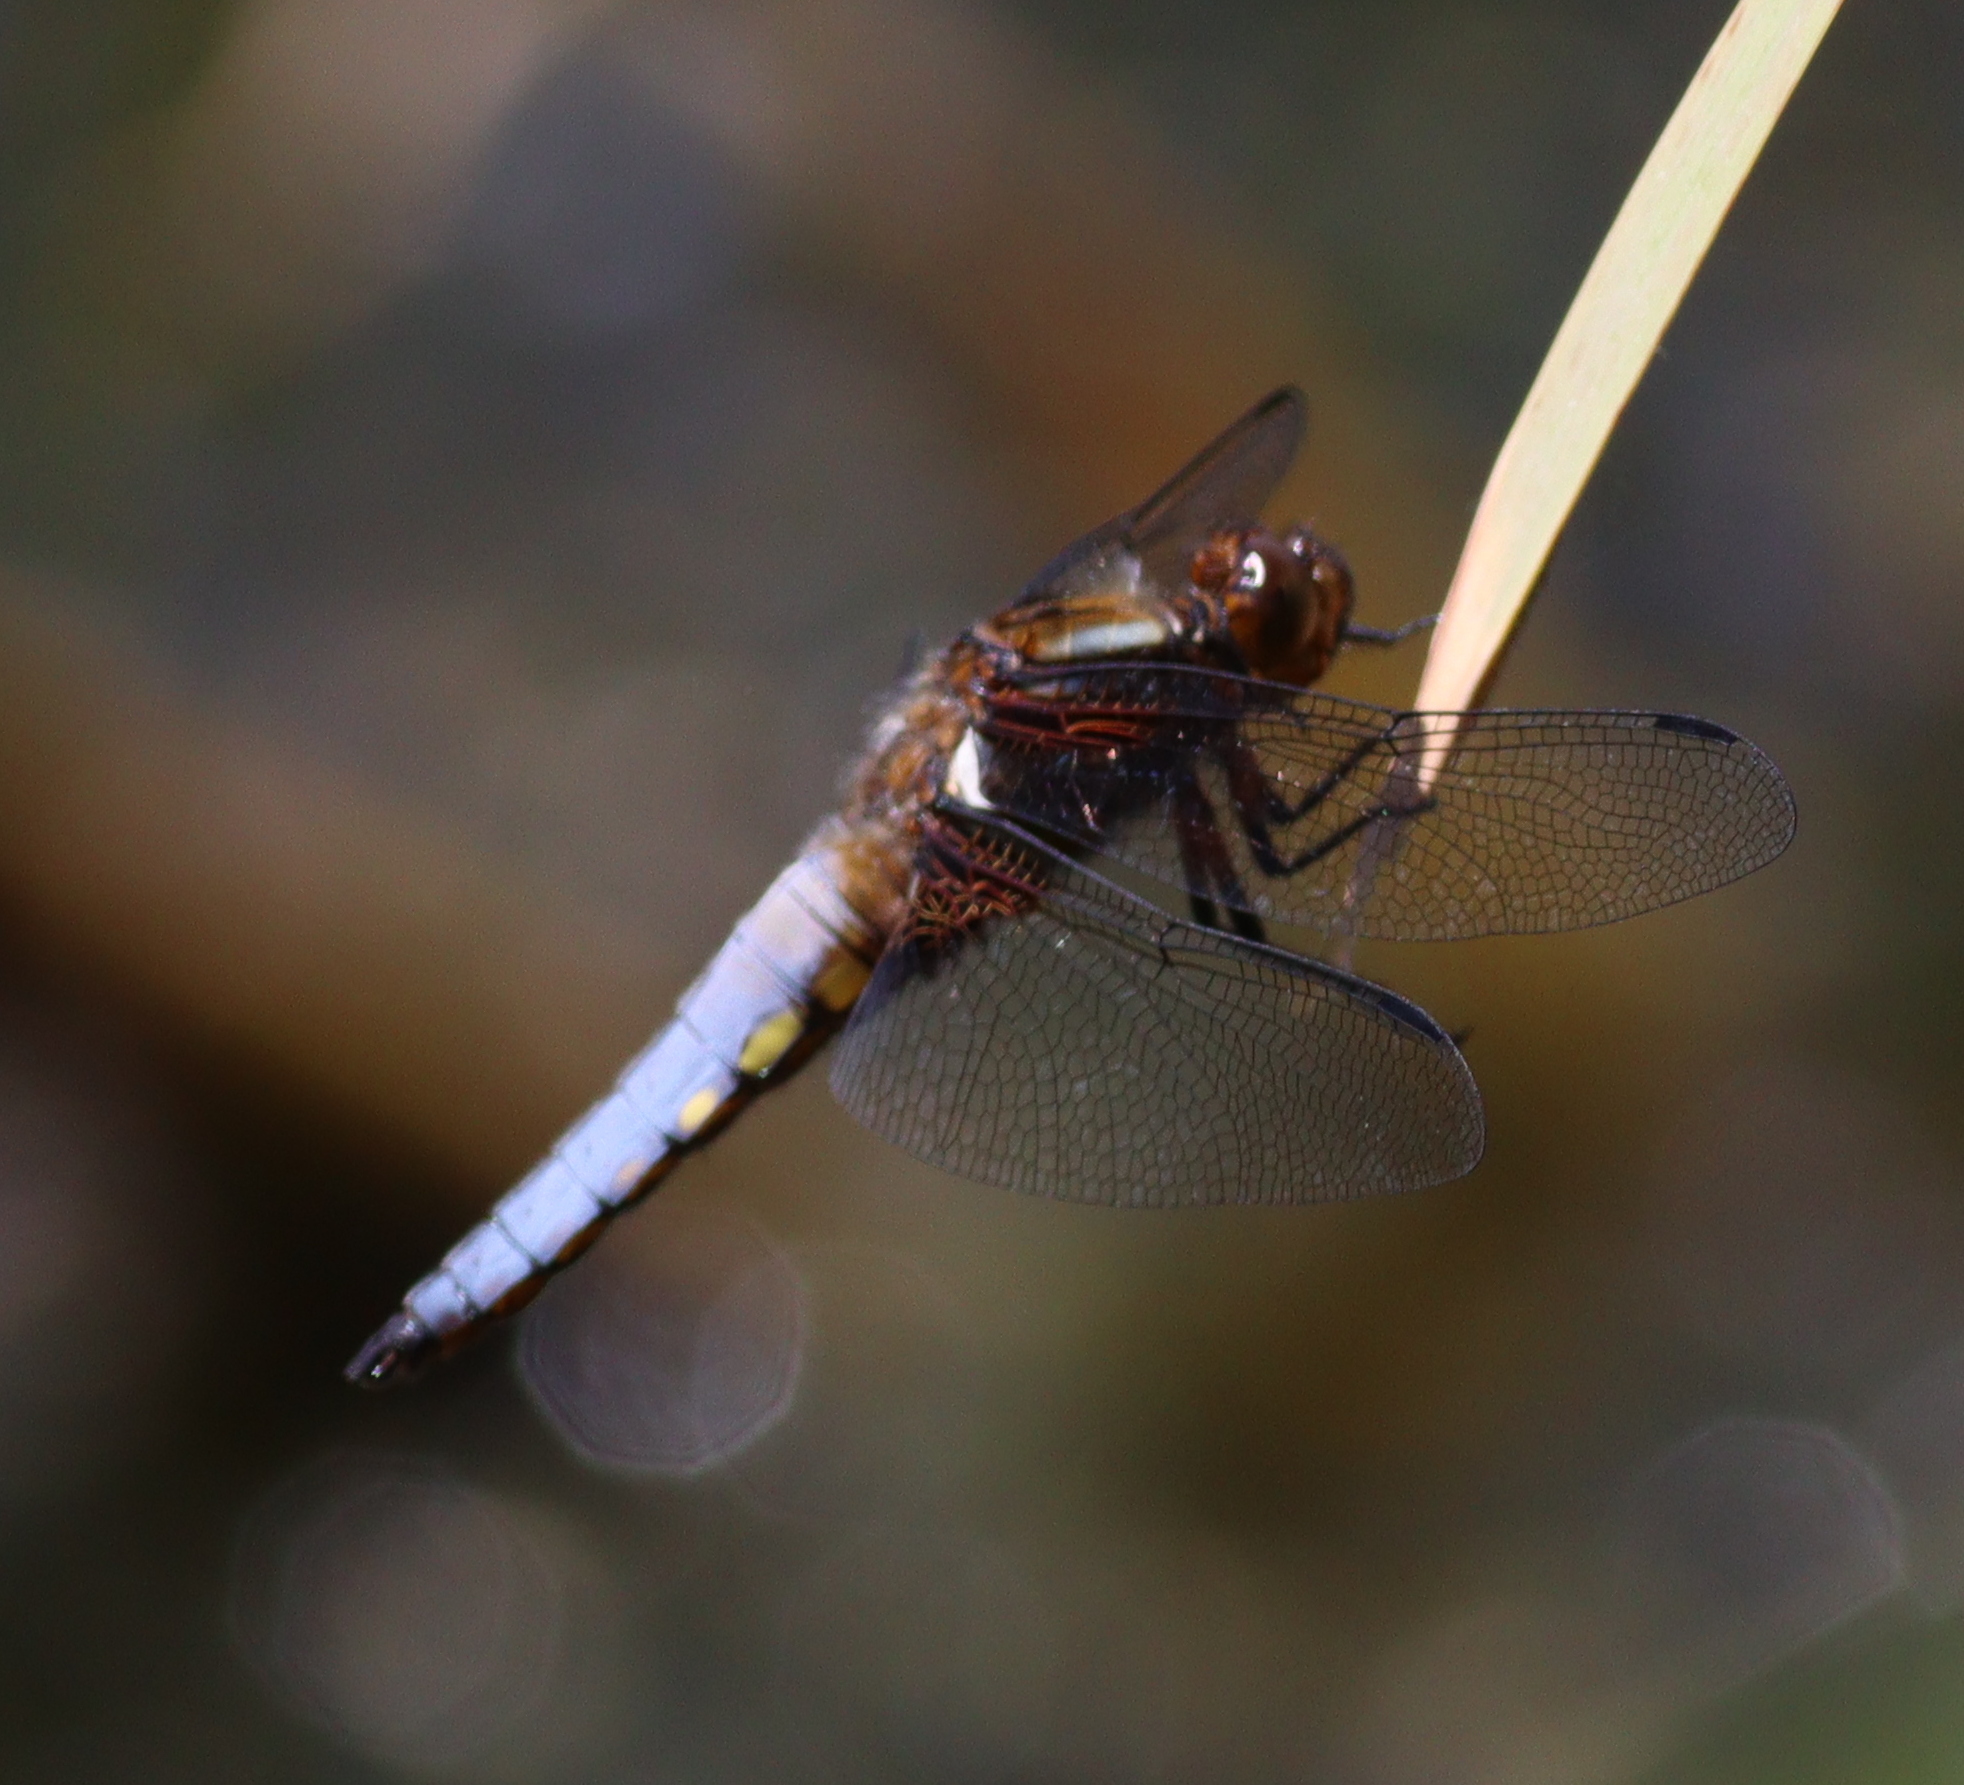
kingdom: Animalia
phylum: Arthropoda
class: Insecta
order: Odonata
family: Libellulidae
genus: Libellula
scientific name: Libellula depressa
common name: Broad-bodied chaser
